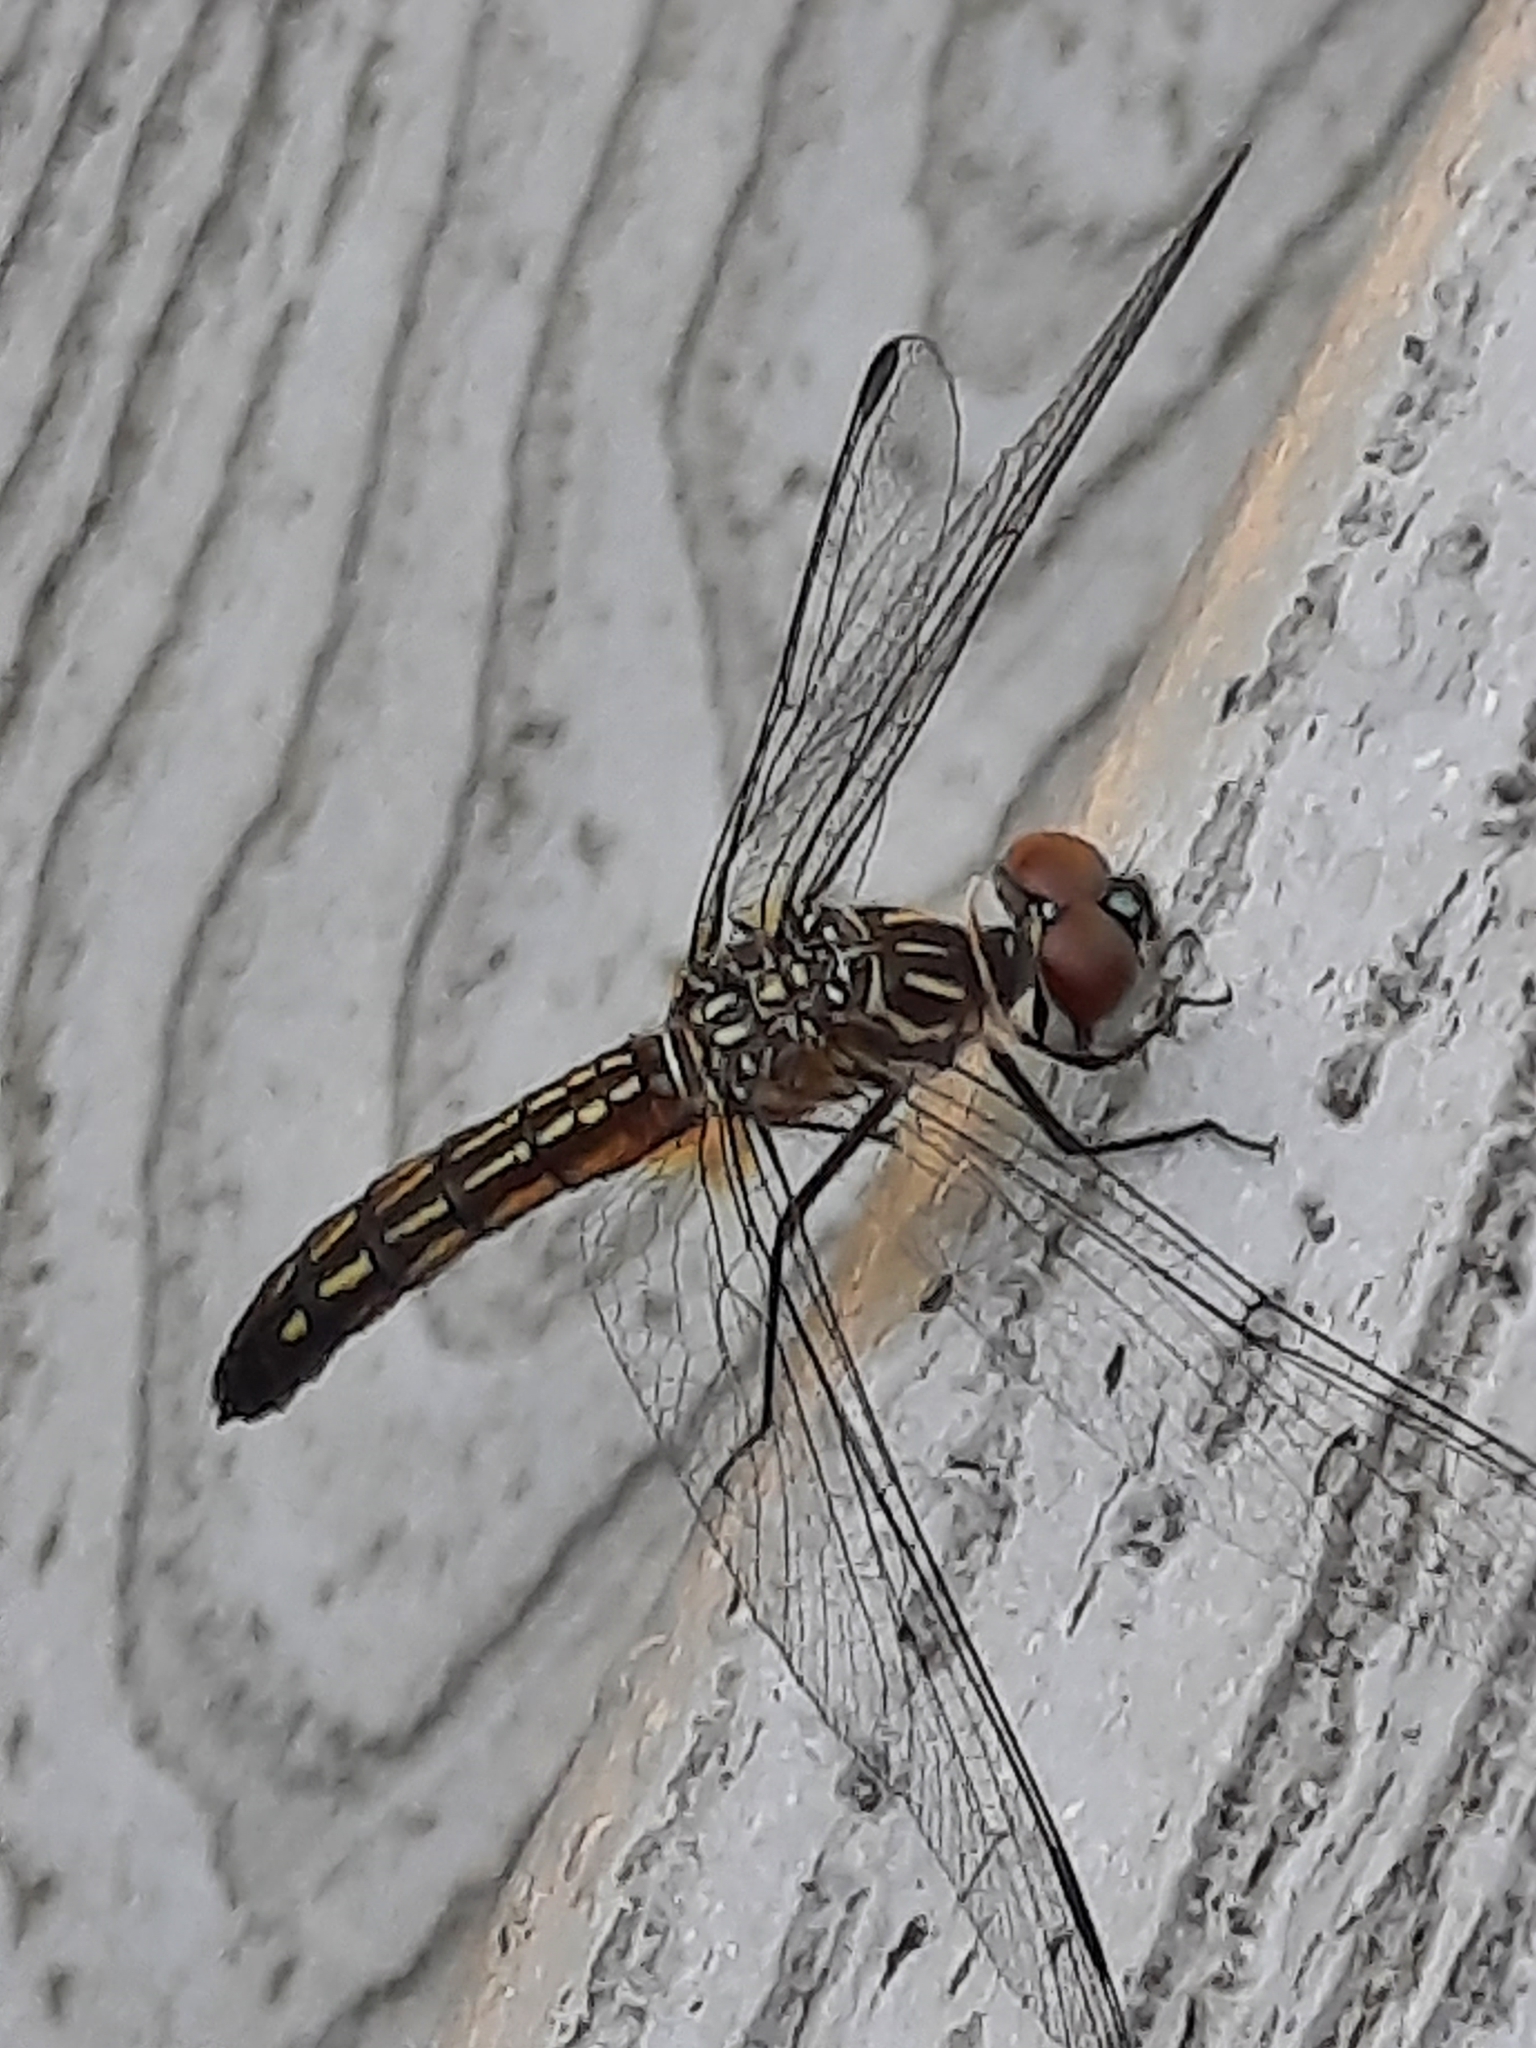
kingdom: Animalia
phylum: Arthropoda
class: Insecta
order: Odonata
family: Libellulidae
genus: Pachydiplax
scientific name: Pachydiplax longipennis
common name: Blue dasher
